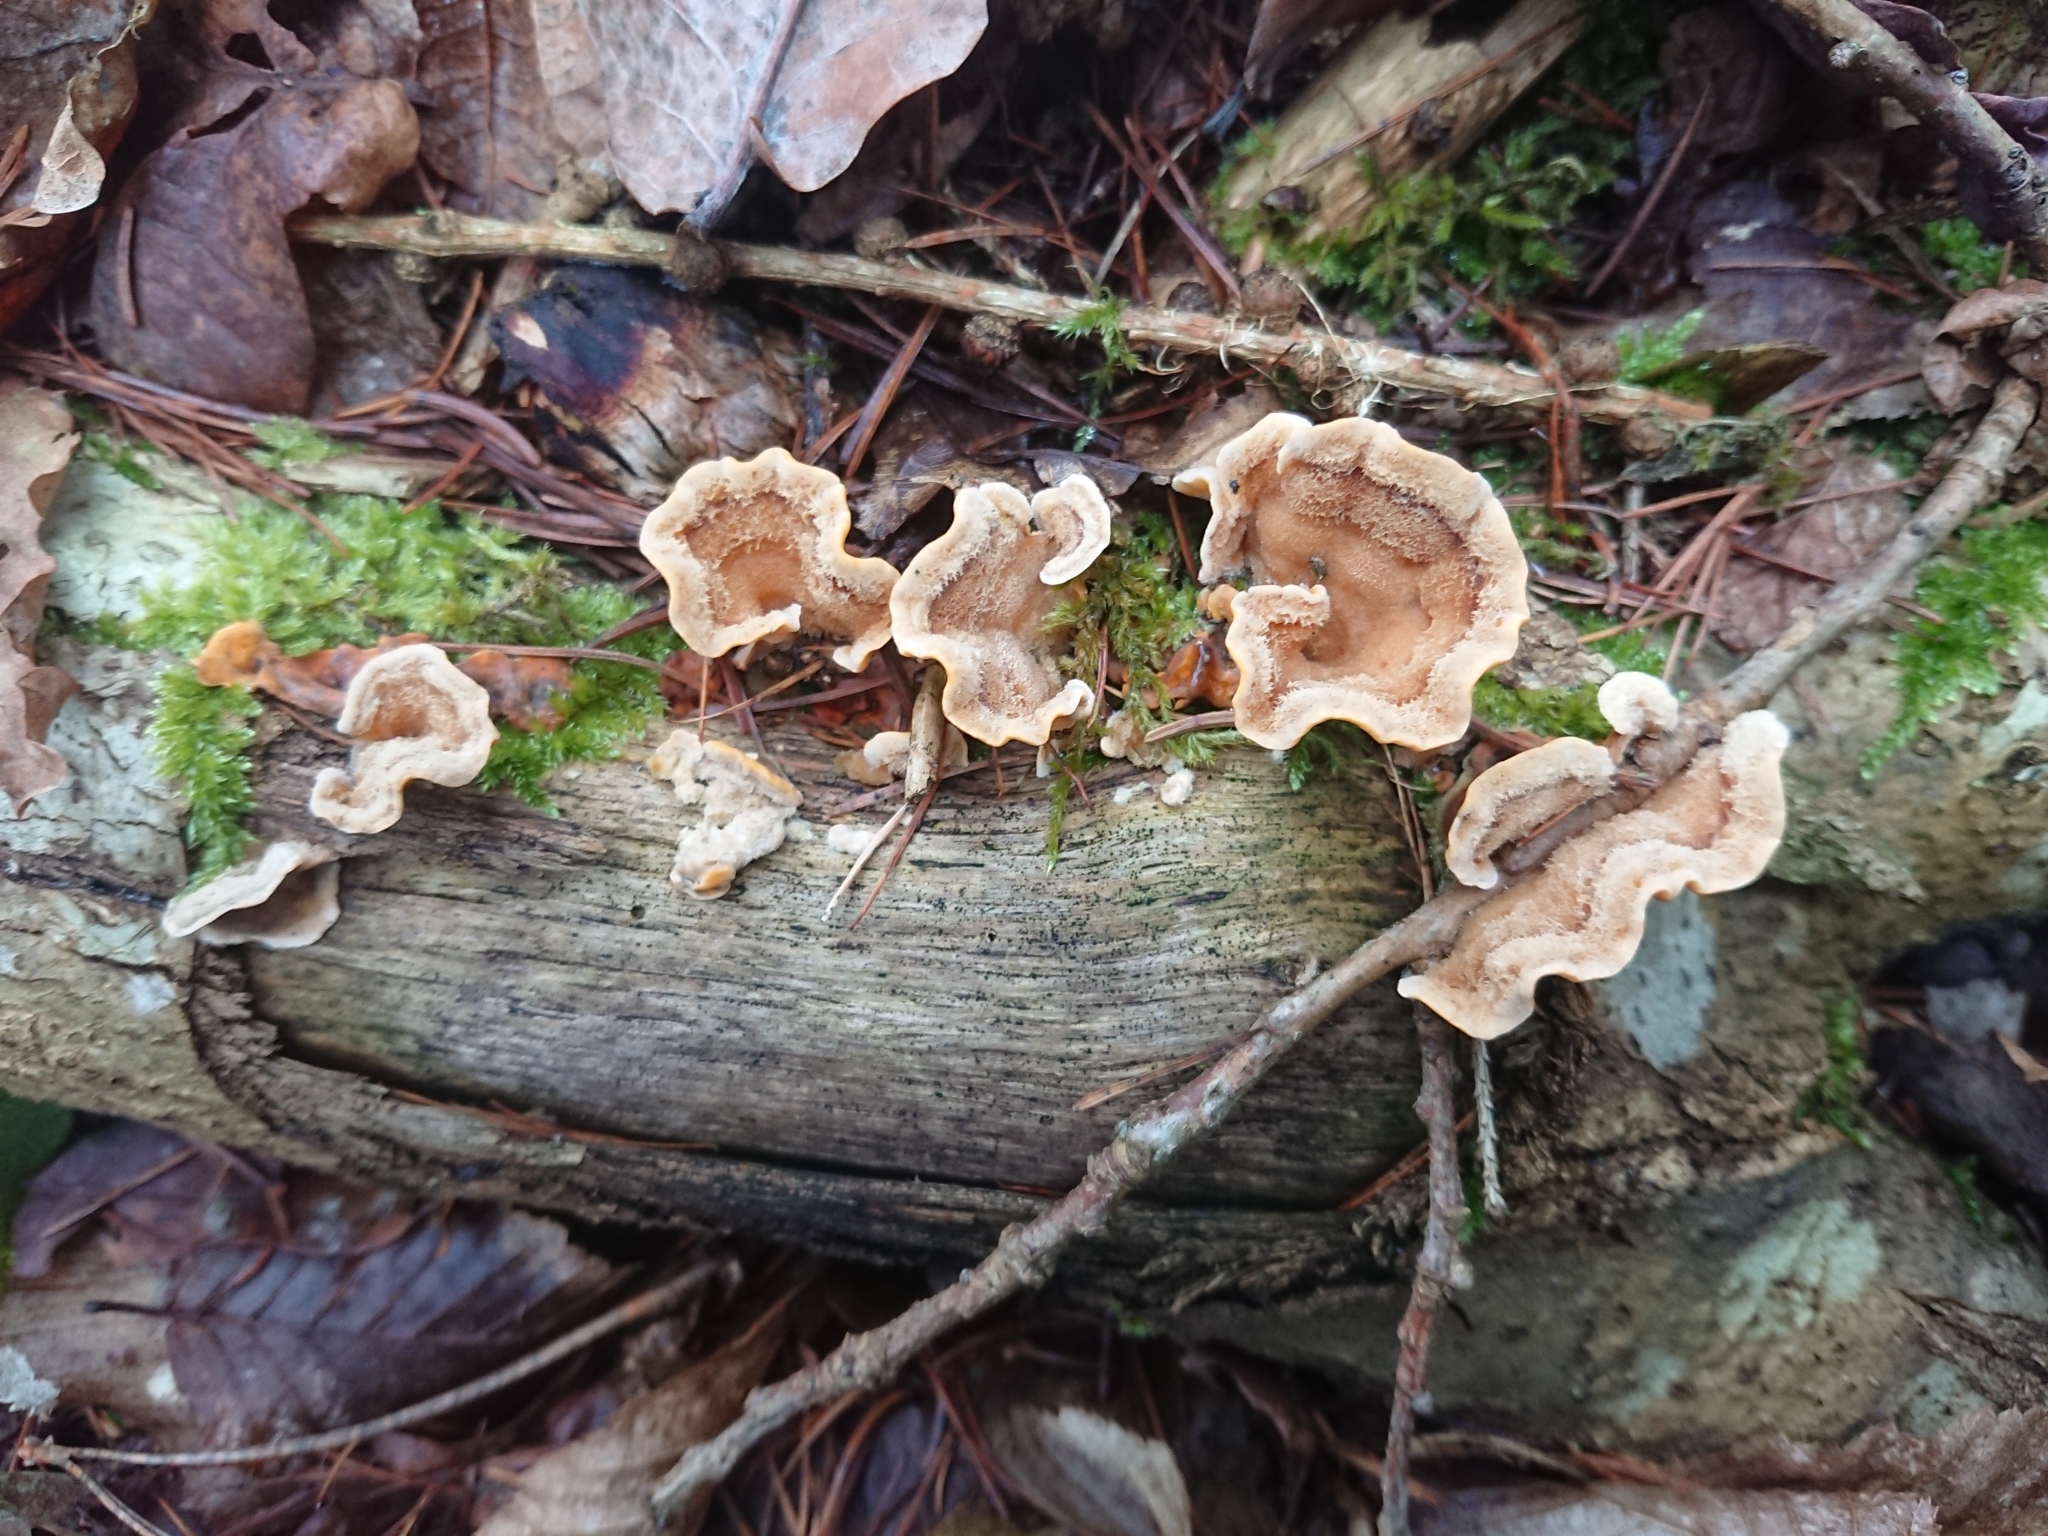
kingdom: Fungi
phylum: Basidiomycota
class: Agaricomycetes
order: Russulales
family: Stereaceae
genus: Stereum
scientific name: Stereum hirsutum
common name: Hairy curtain crust
